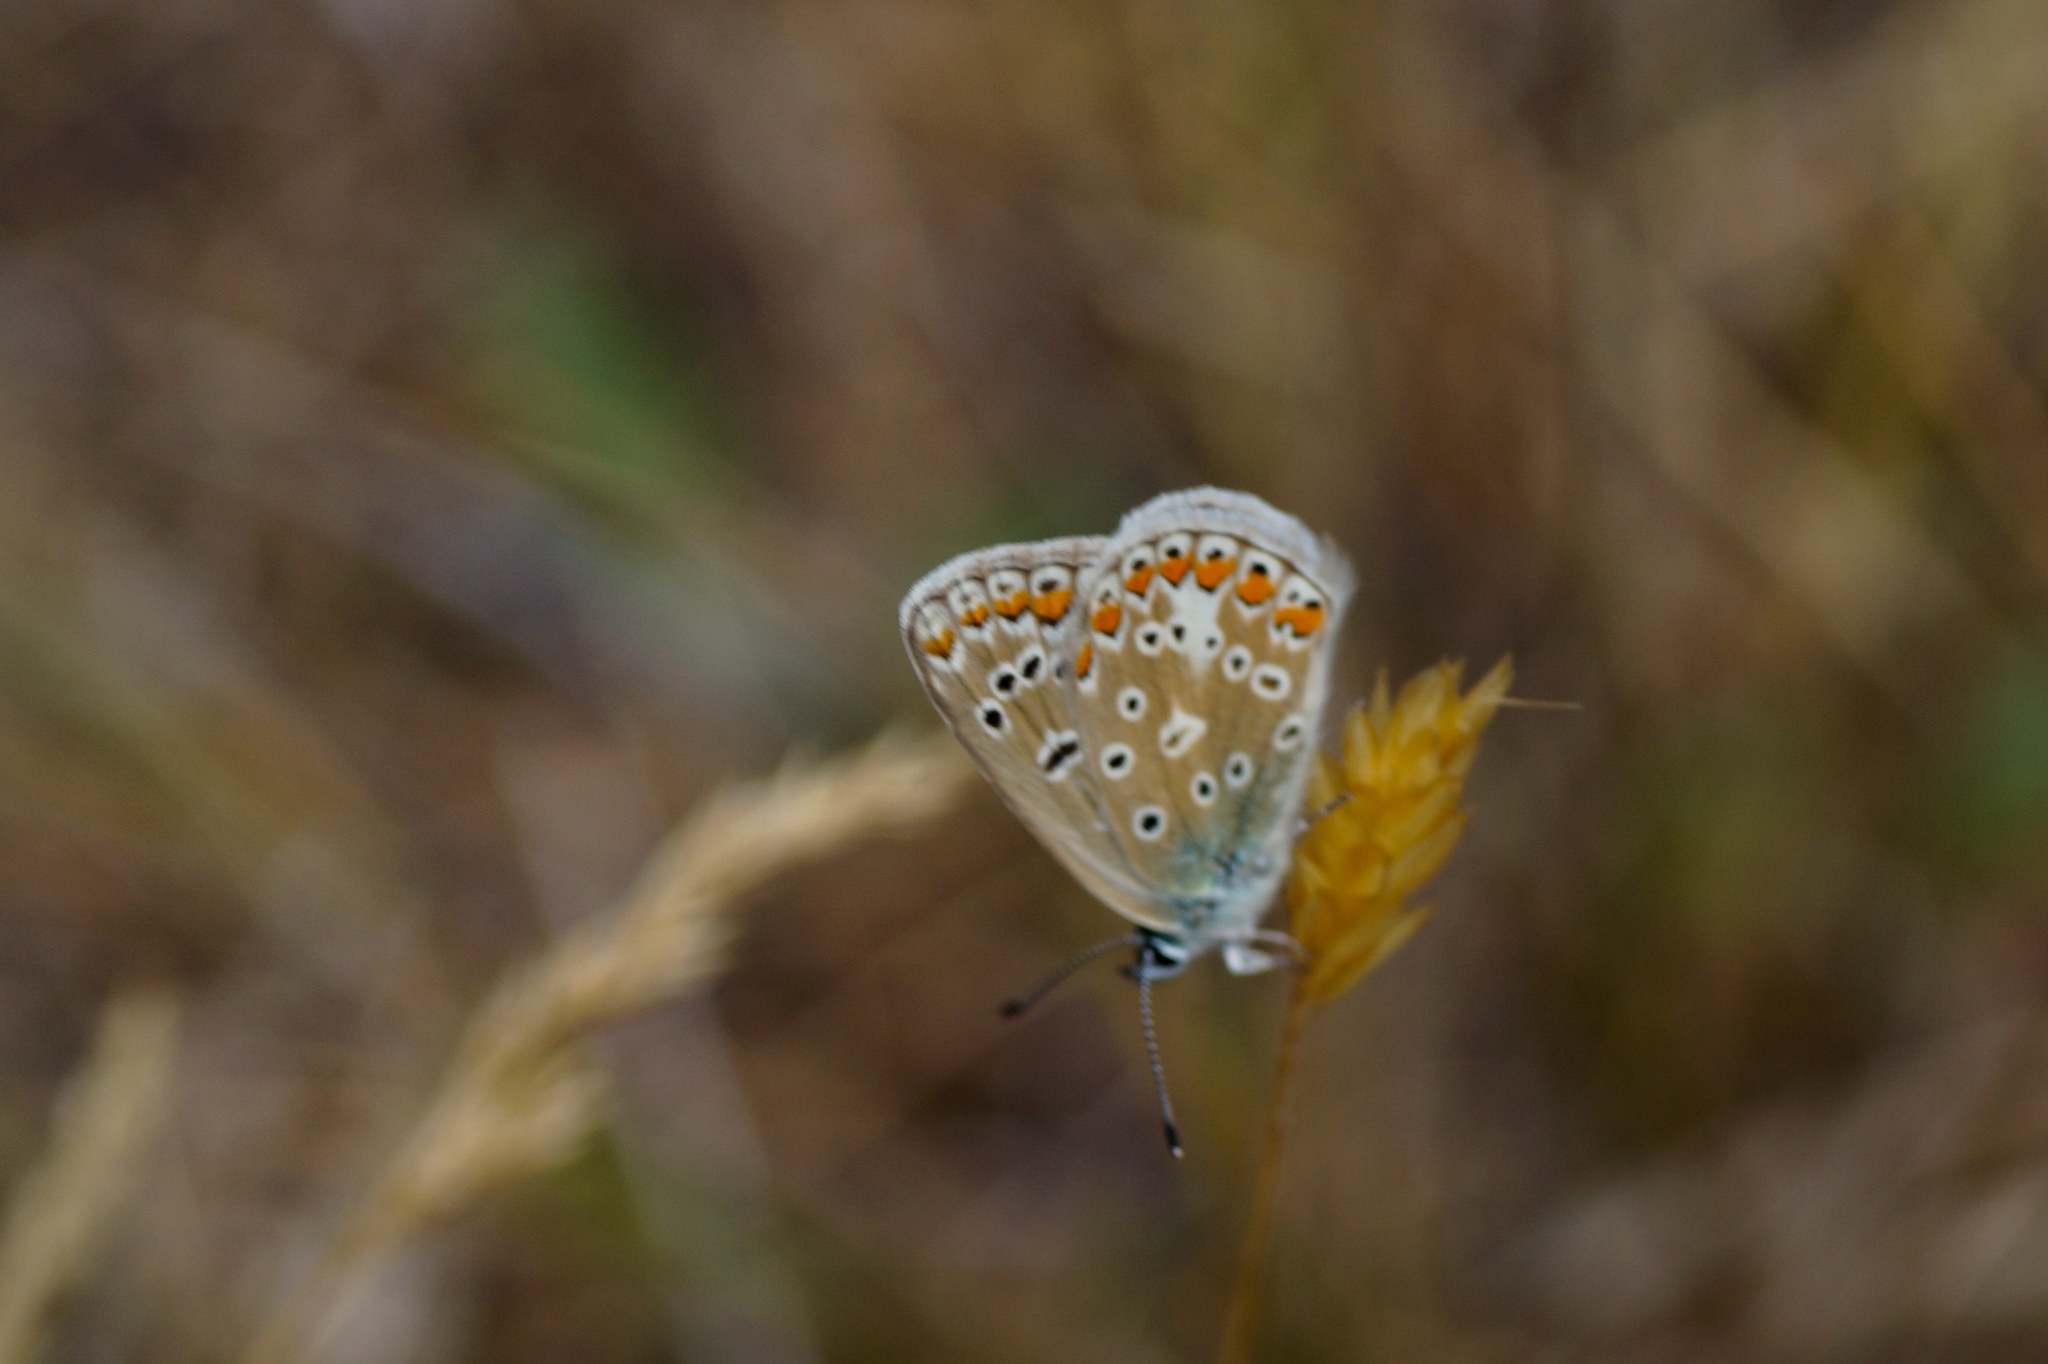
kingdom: Animalia
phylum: Arthropoda
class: Insecta
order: Lepidoptera
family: Lycaenidae
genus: Polyommatus
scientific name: Polyommatus icarus
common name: Common blue
